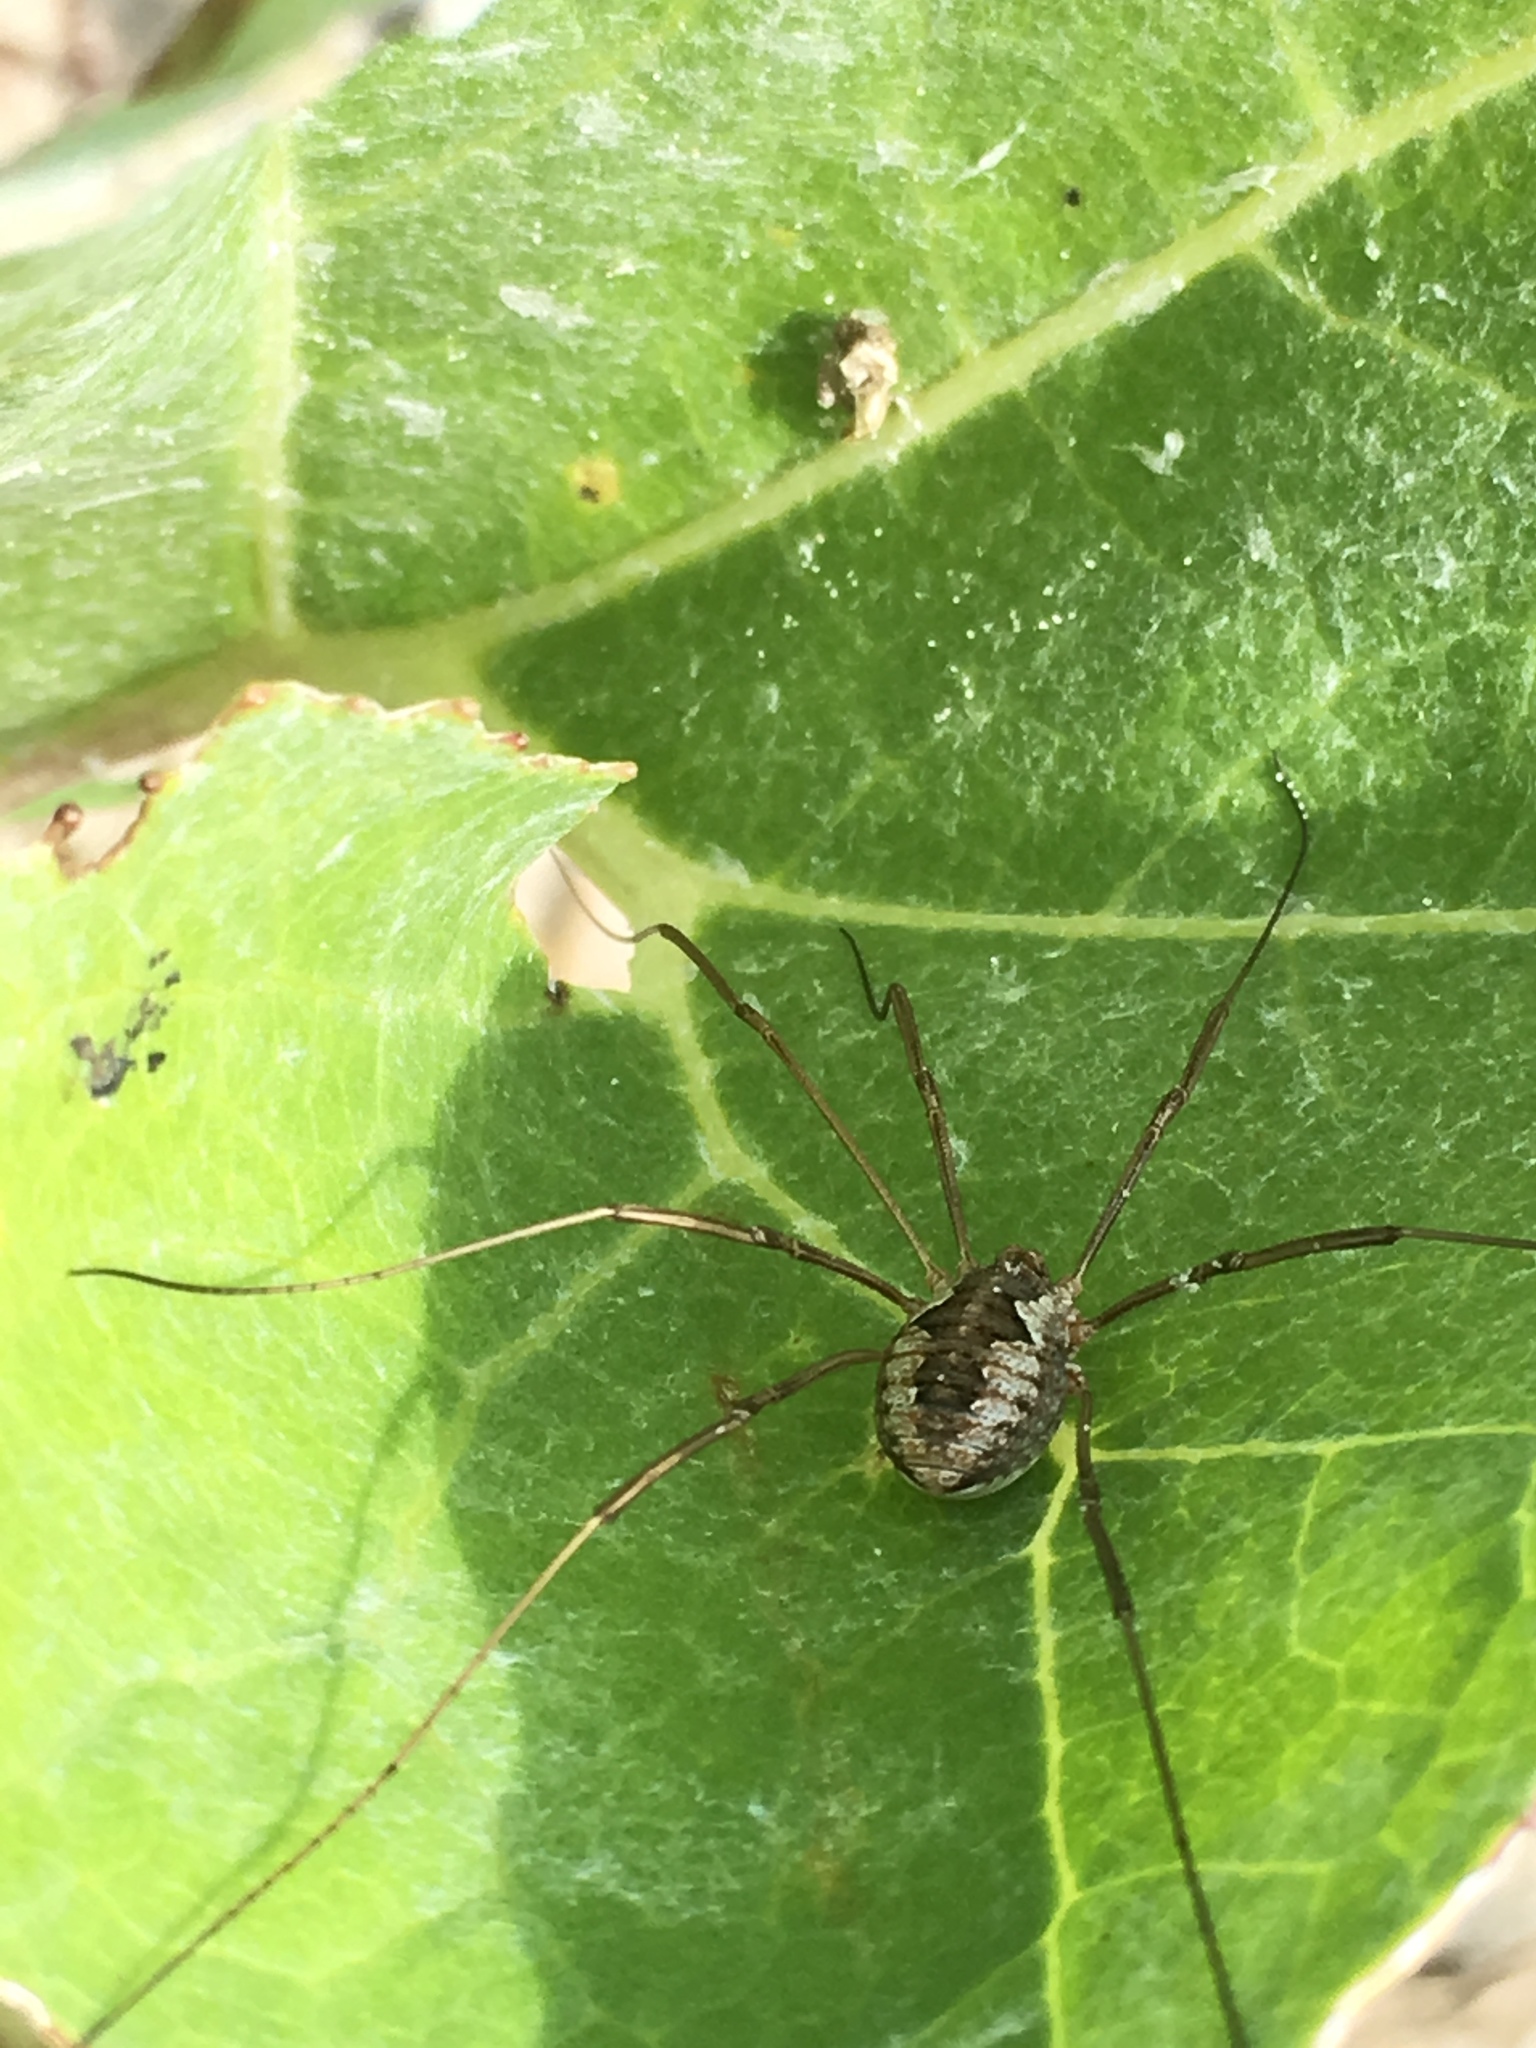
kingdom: Animalia
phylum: Arthropoda
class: Arachnida
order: Opiliones
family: Phalangiidae
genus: Phalangium
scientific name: Phalangium opilio
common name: Daddy longleg
